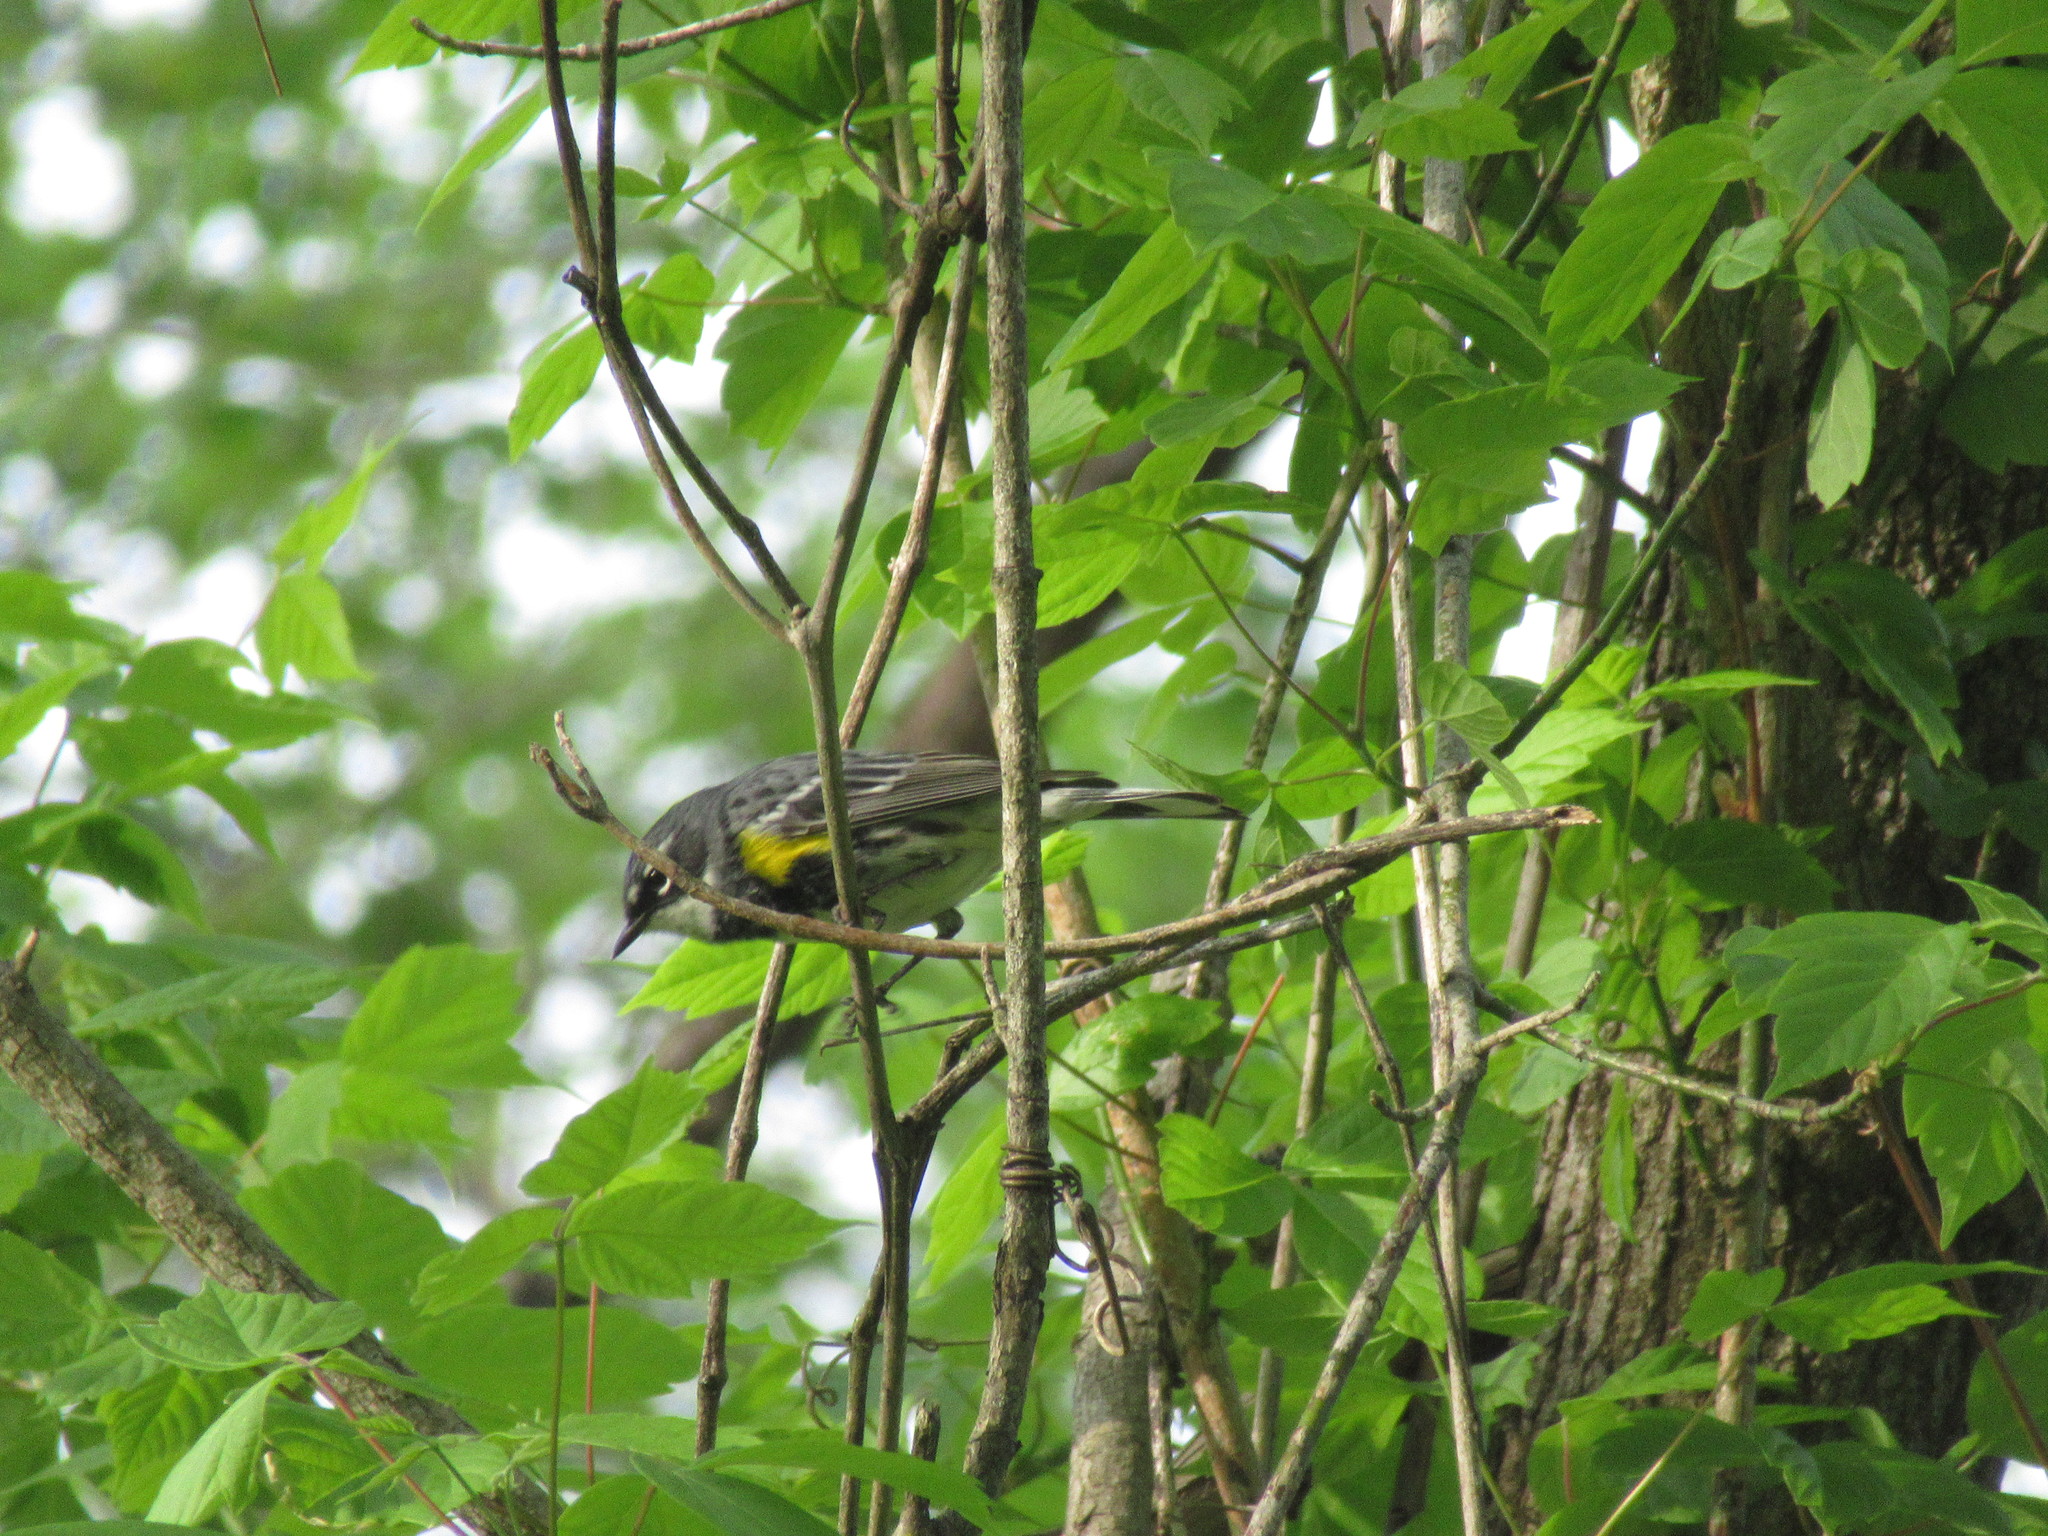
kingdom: Animalia
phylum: Chordata
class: Aves
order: Passeriformes
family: Parulidae
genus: Setophaga
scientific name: Setophaga coronata
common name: Myrtle warbler
